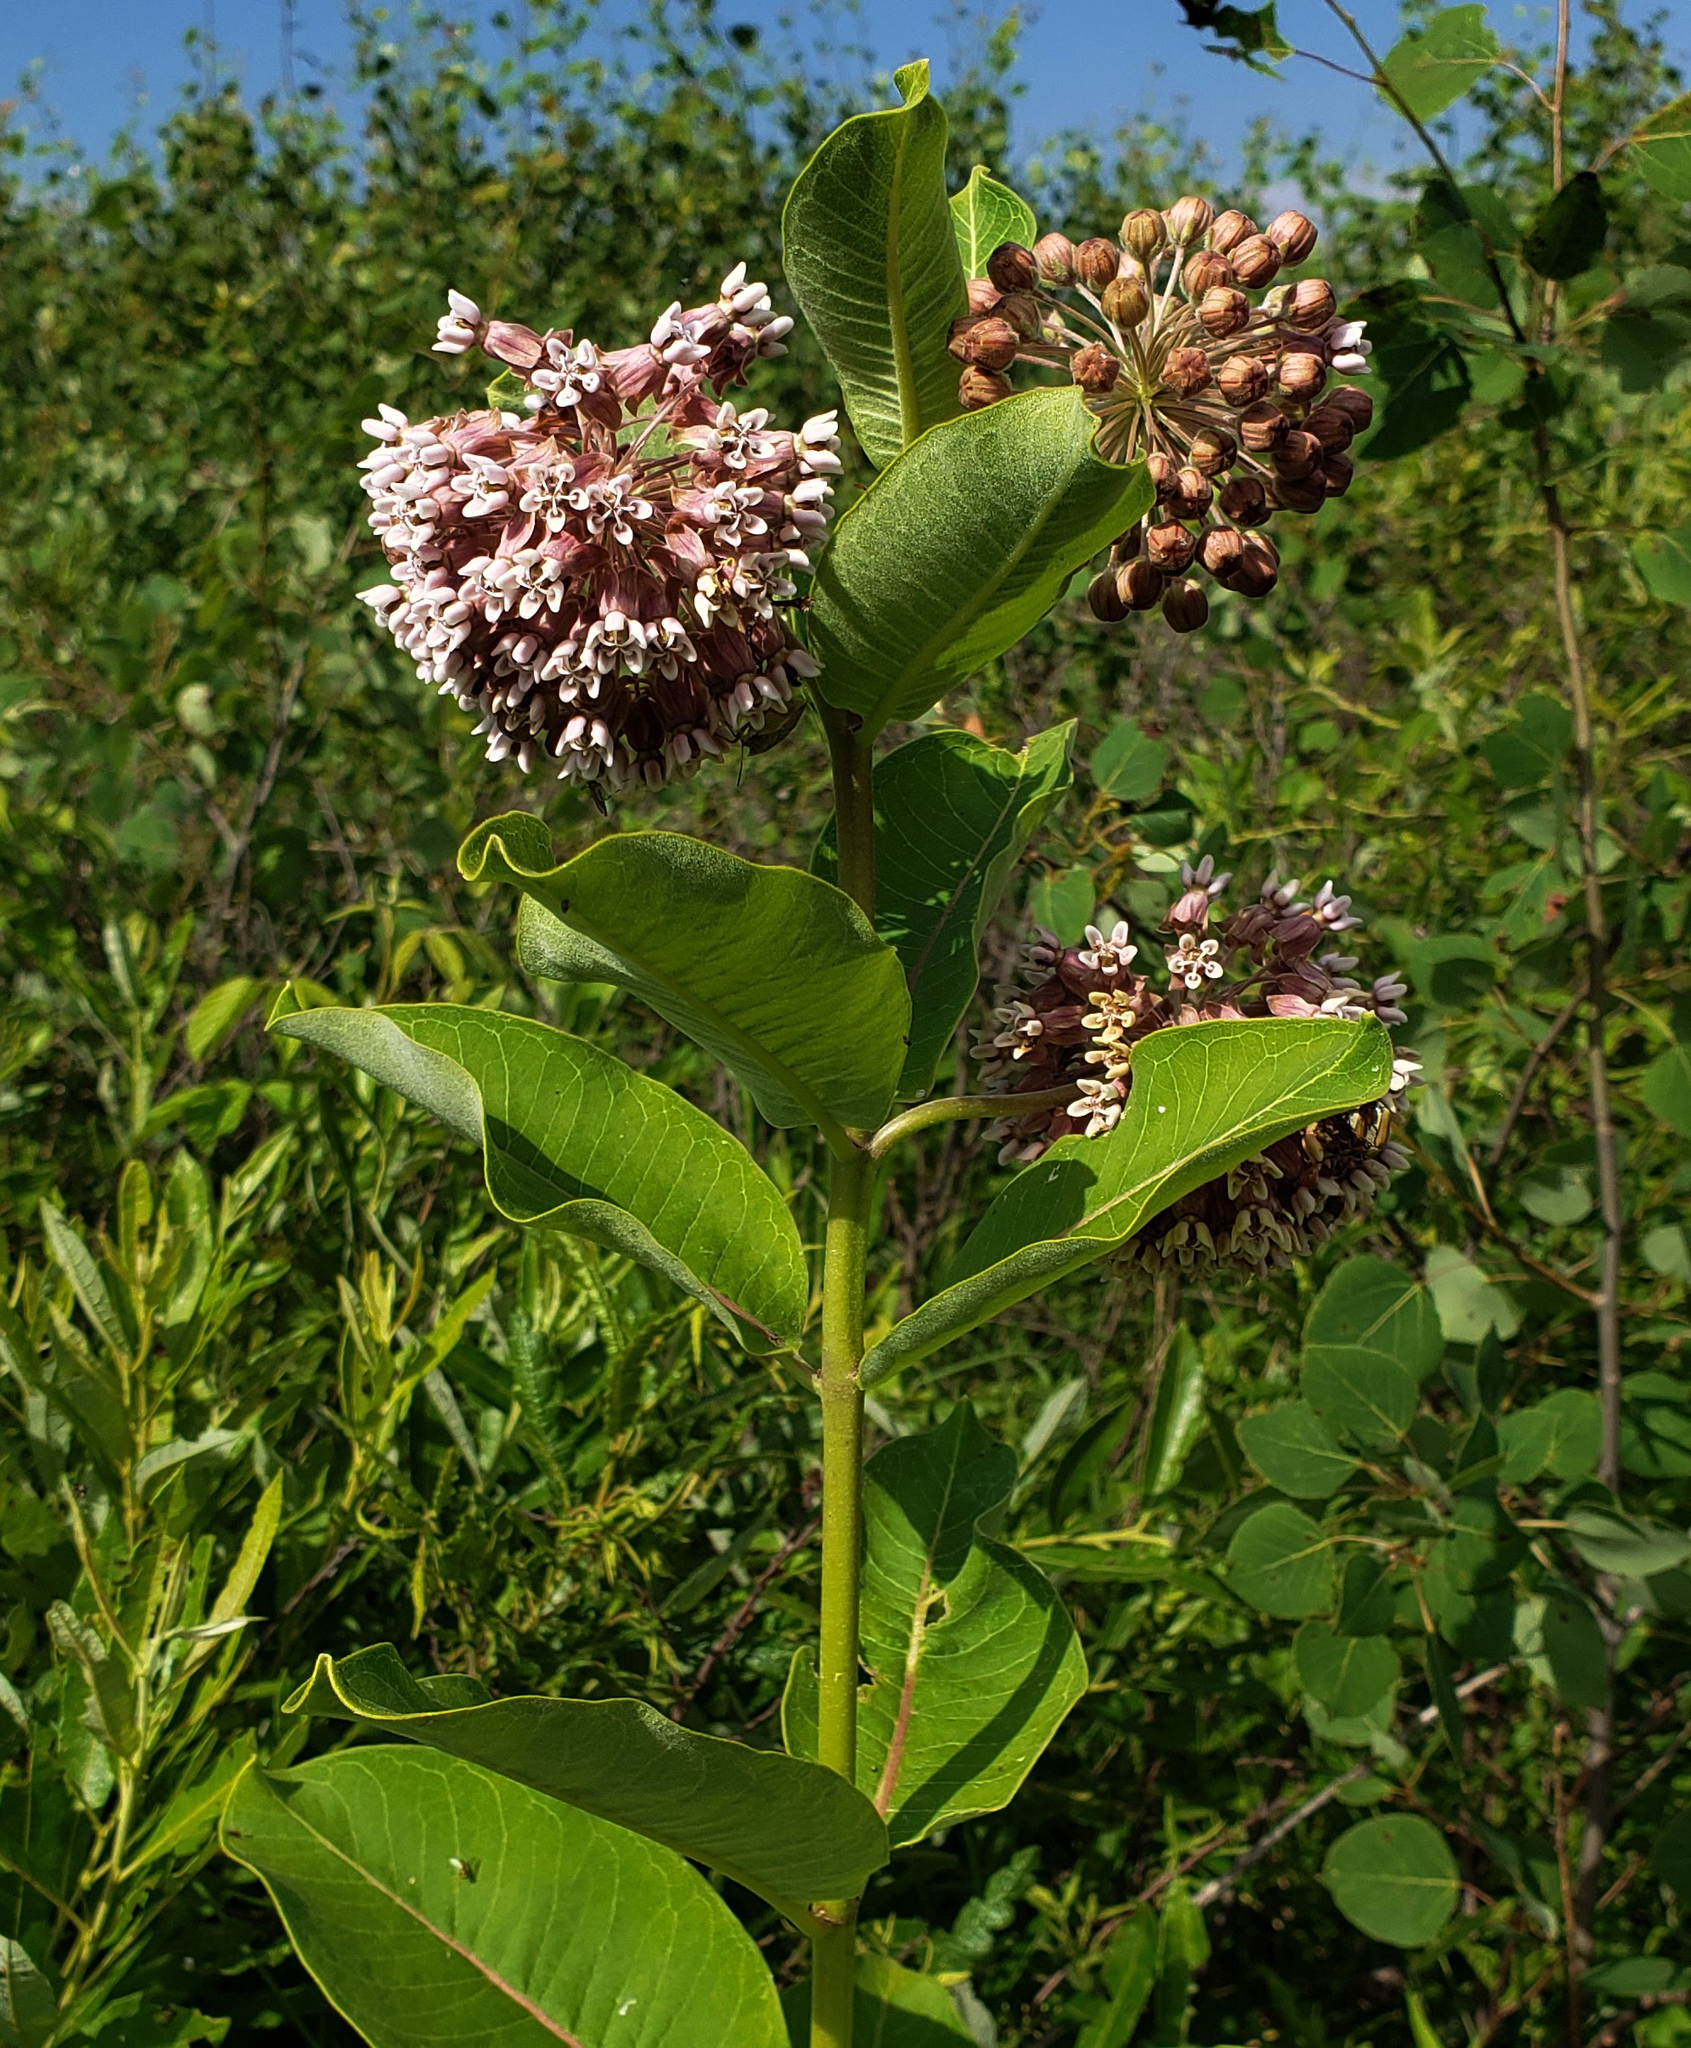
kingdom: Plantae
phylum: Tracheophyta
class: Magnoliopsida
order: Gentianales
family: Apocynaceae
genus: Asclepias
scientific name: Asclepias syriaca
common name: Common milkweed
